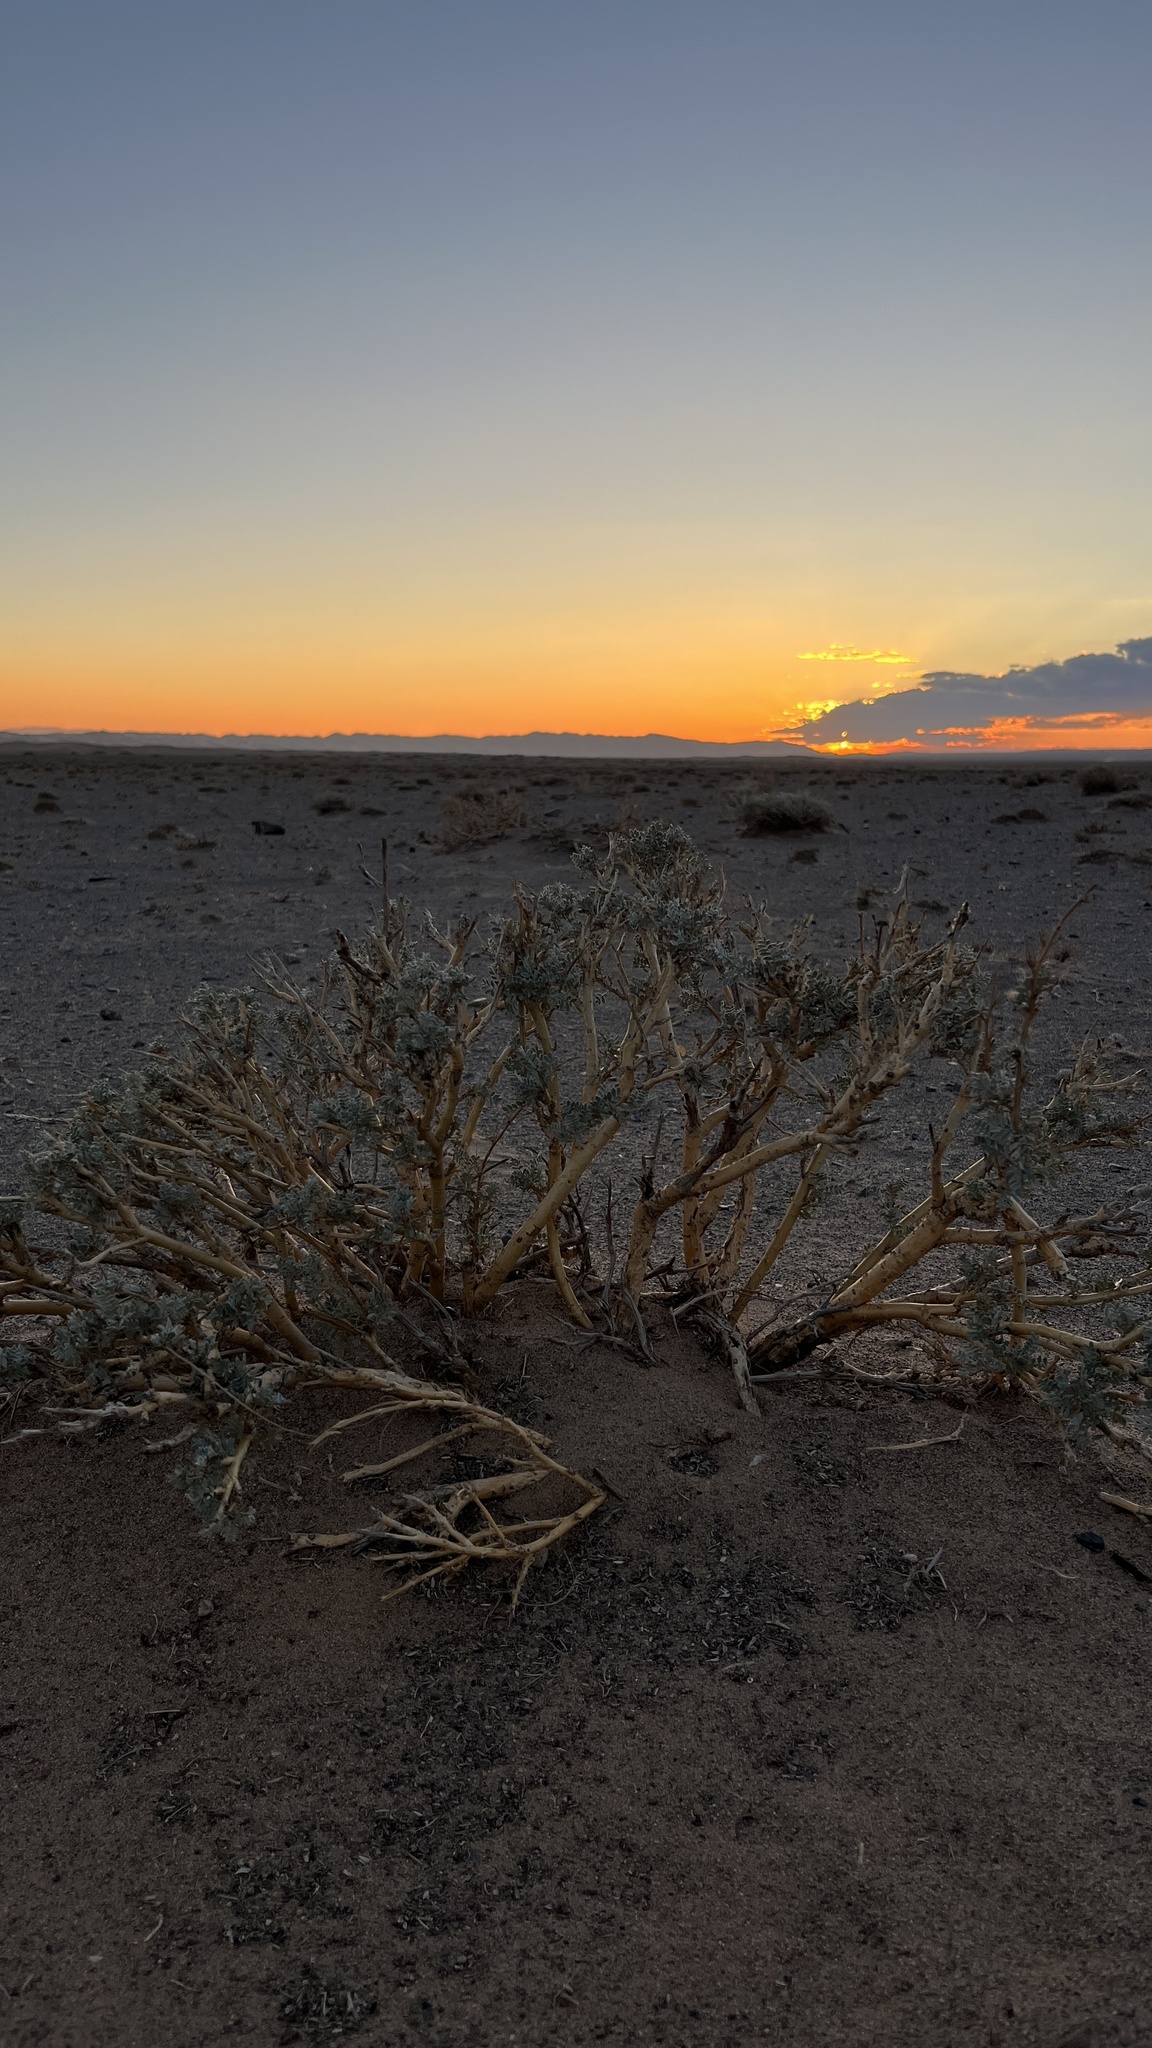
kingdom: Plantae
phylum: Tracheophyta
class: Magnoliopsida
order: Fabales
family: Fabaceae
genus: Caragana
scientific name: Caragana pygmaea
